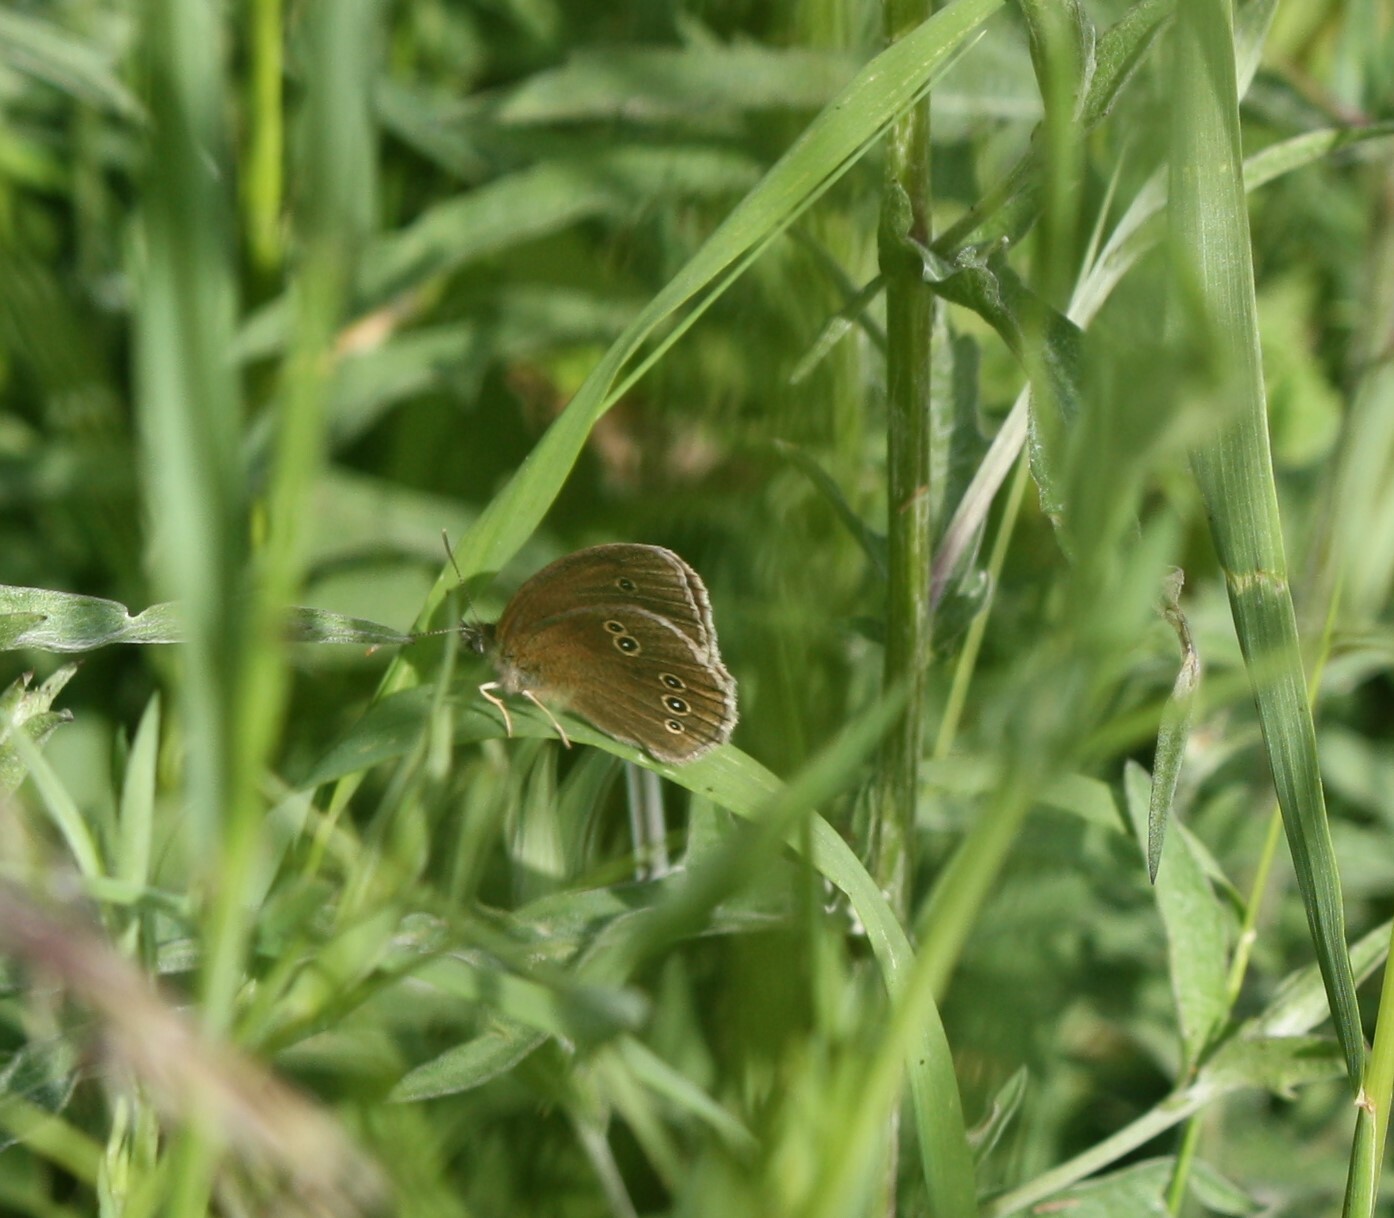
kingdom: Animalia
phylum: Arthropoda
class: Insecta
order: Lepidoptera
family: Nymphalidae
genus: Aphantopus
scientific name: Aphantopus hyperantus
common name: Ringlet
